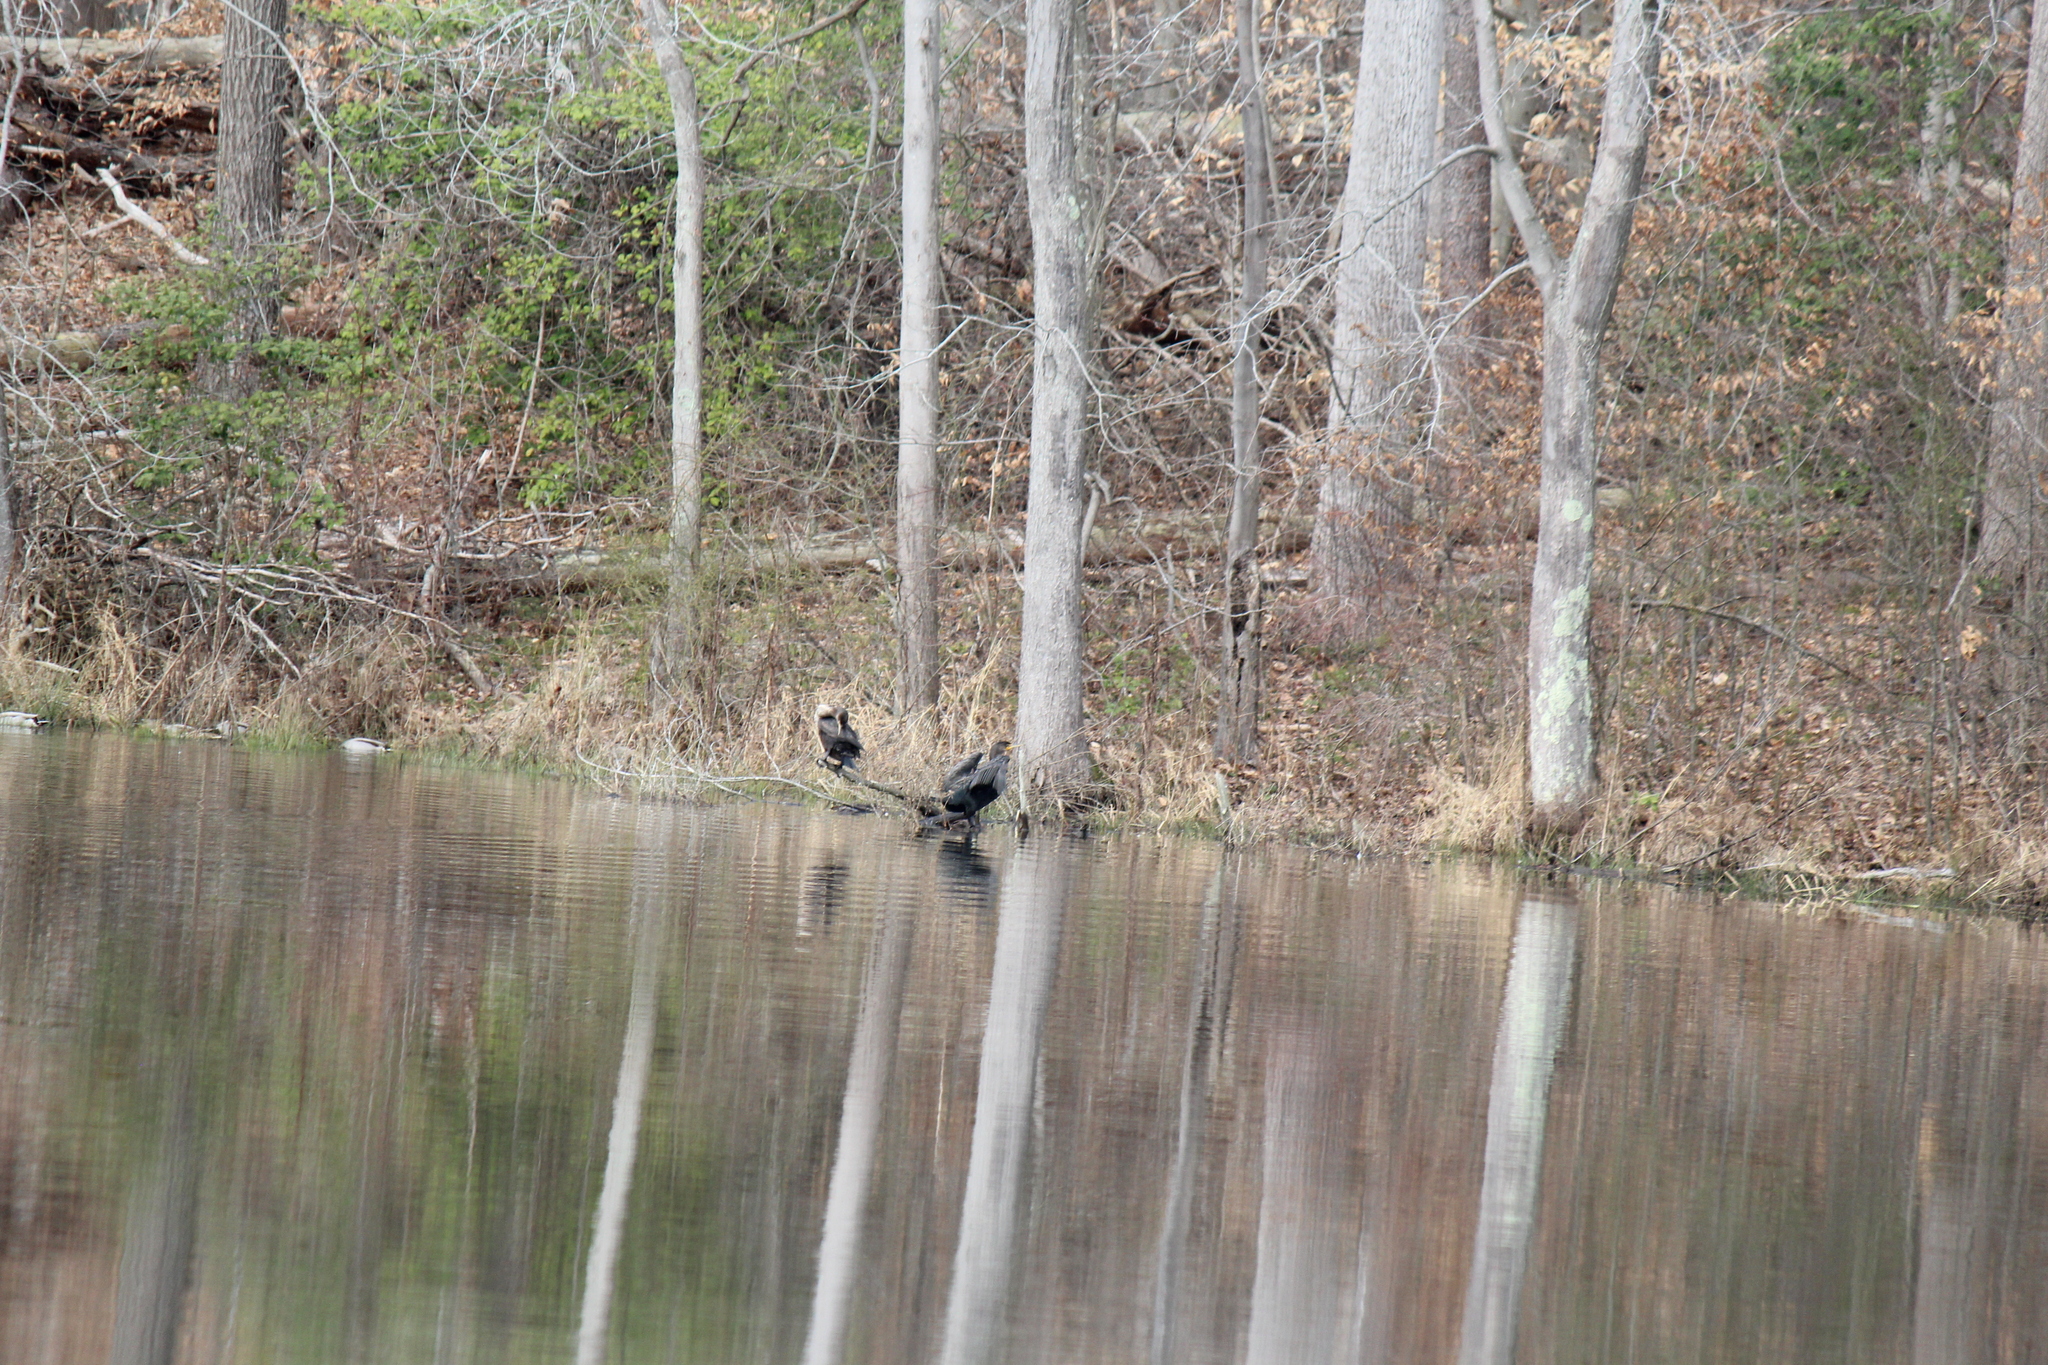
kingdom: Animalia
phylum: Chordata
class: Aves
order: Suliformes
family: Phalacrocoracidae
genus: Phalacrocorax
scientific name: Phalacrocorax auritus
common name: Double-crested cormorant
